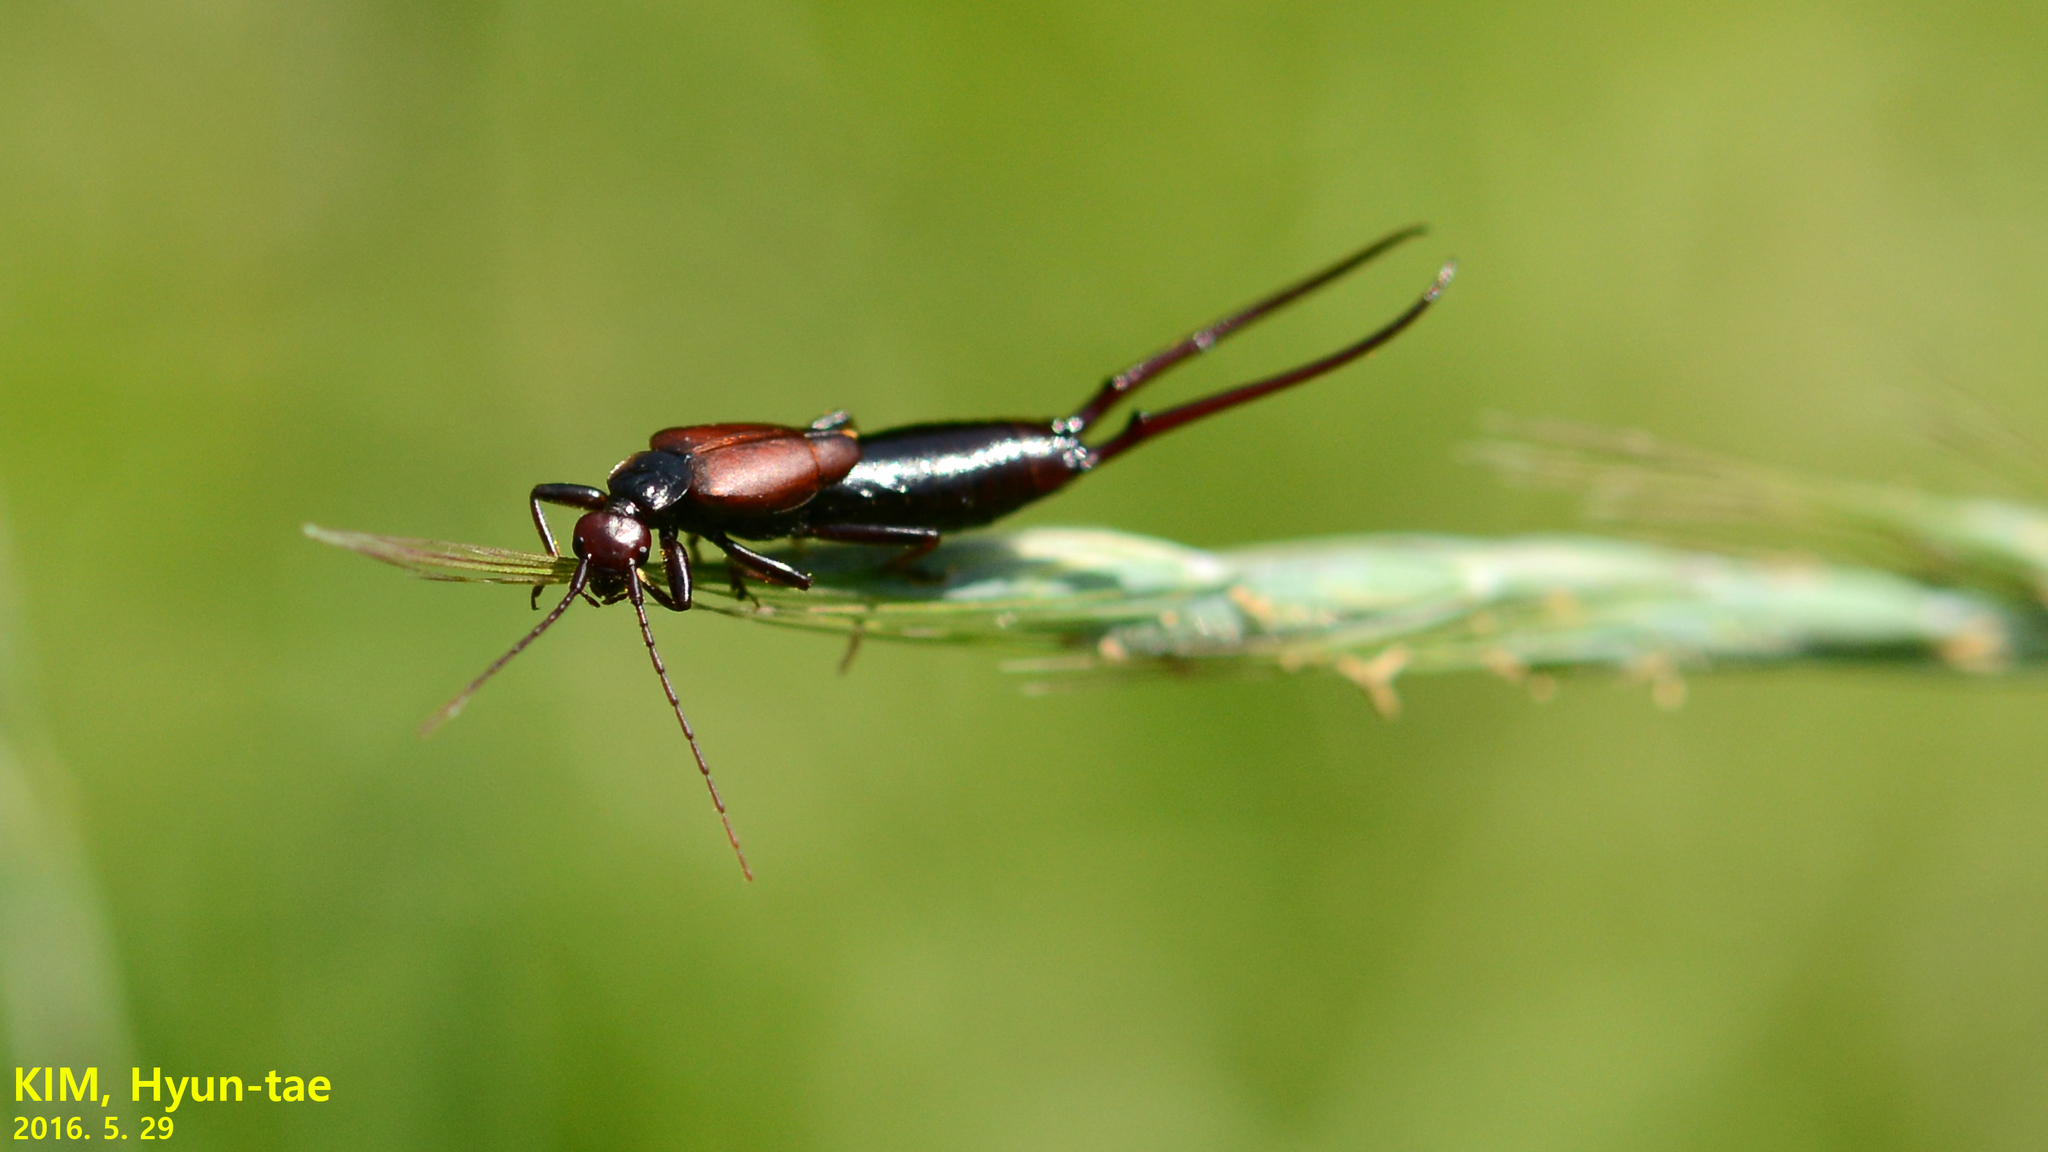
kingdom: Animalia
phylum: Arthropoda
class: Insecta
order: Dermaptera
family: Forficulidae
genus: Timomenus
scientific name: Timomenus komarovi
